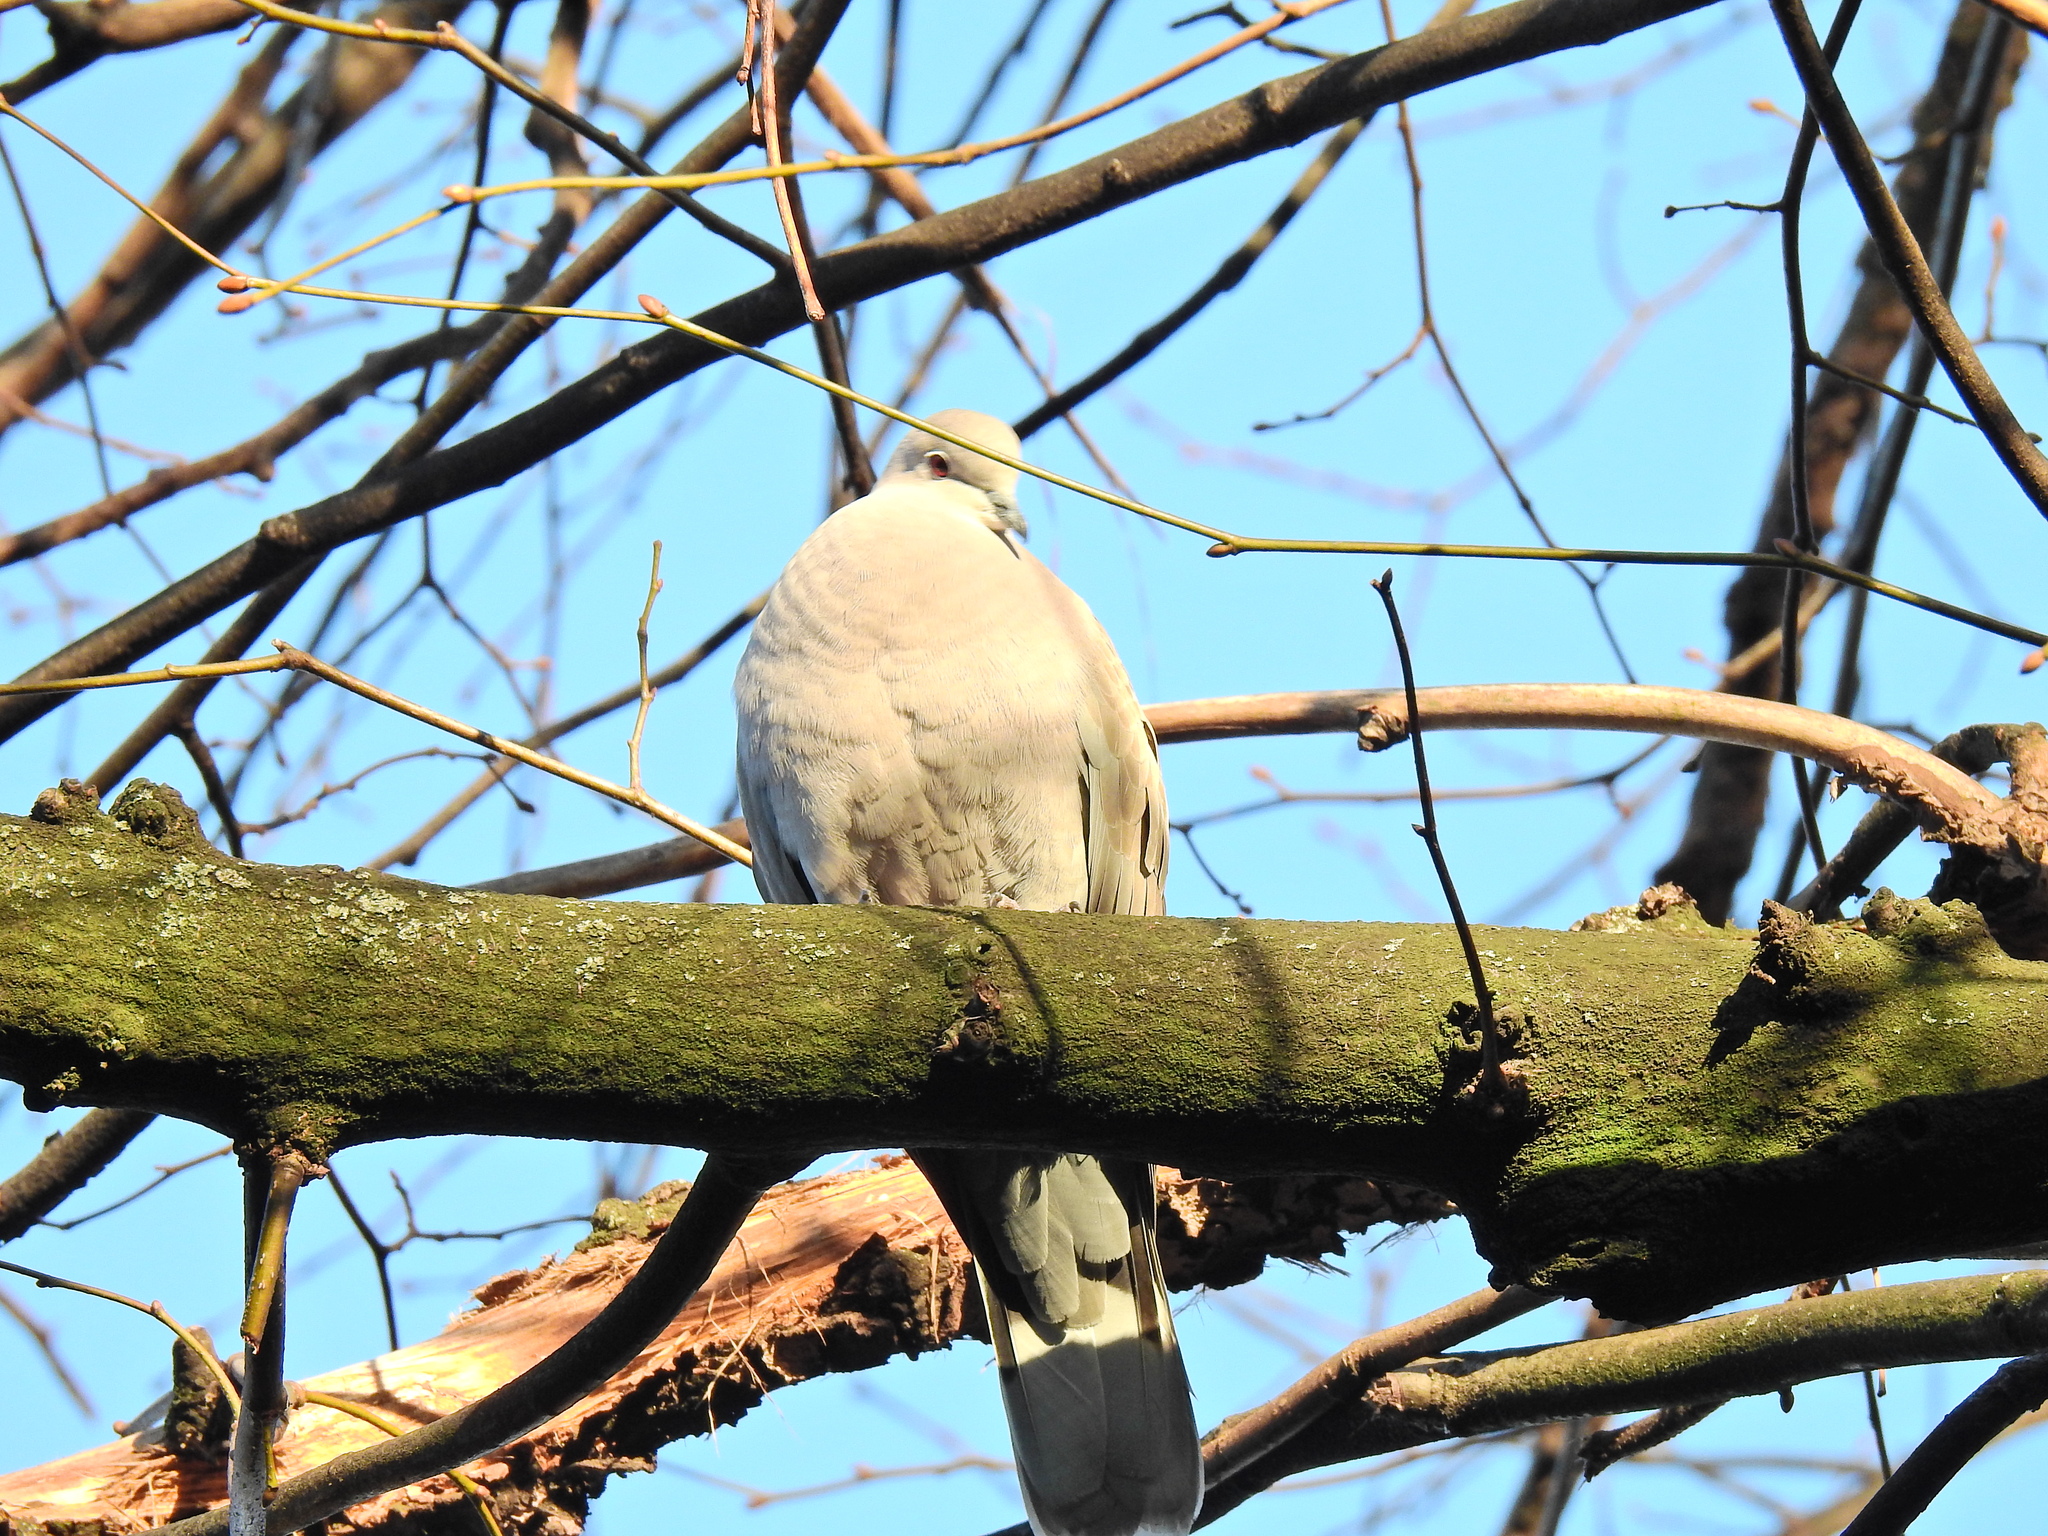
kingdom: Animalia
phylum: Chordata
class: Aves
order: Columbiformes
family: Columbidae
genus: Streptopelia
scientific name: Streptopelia decaocto
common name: Eurasian collared dove
